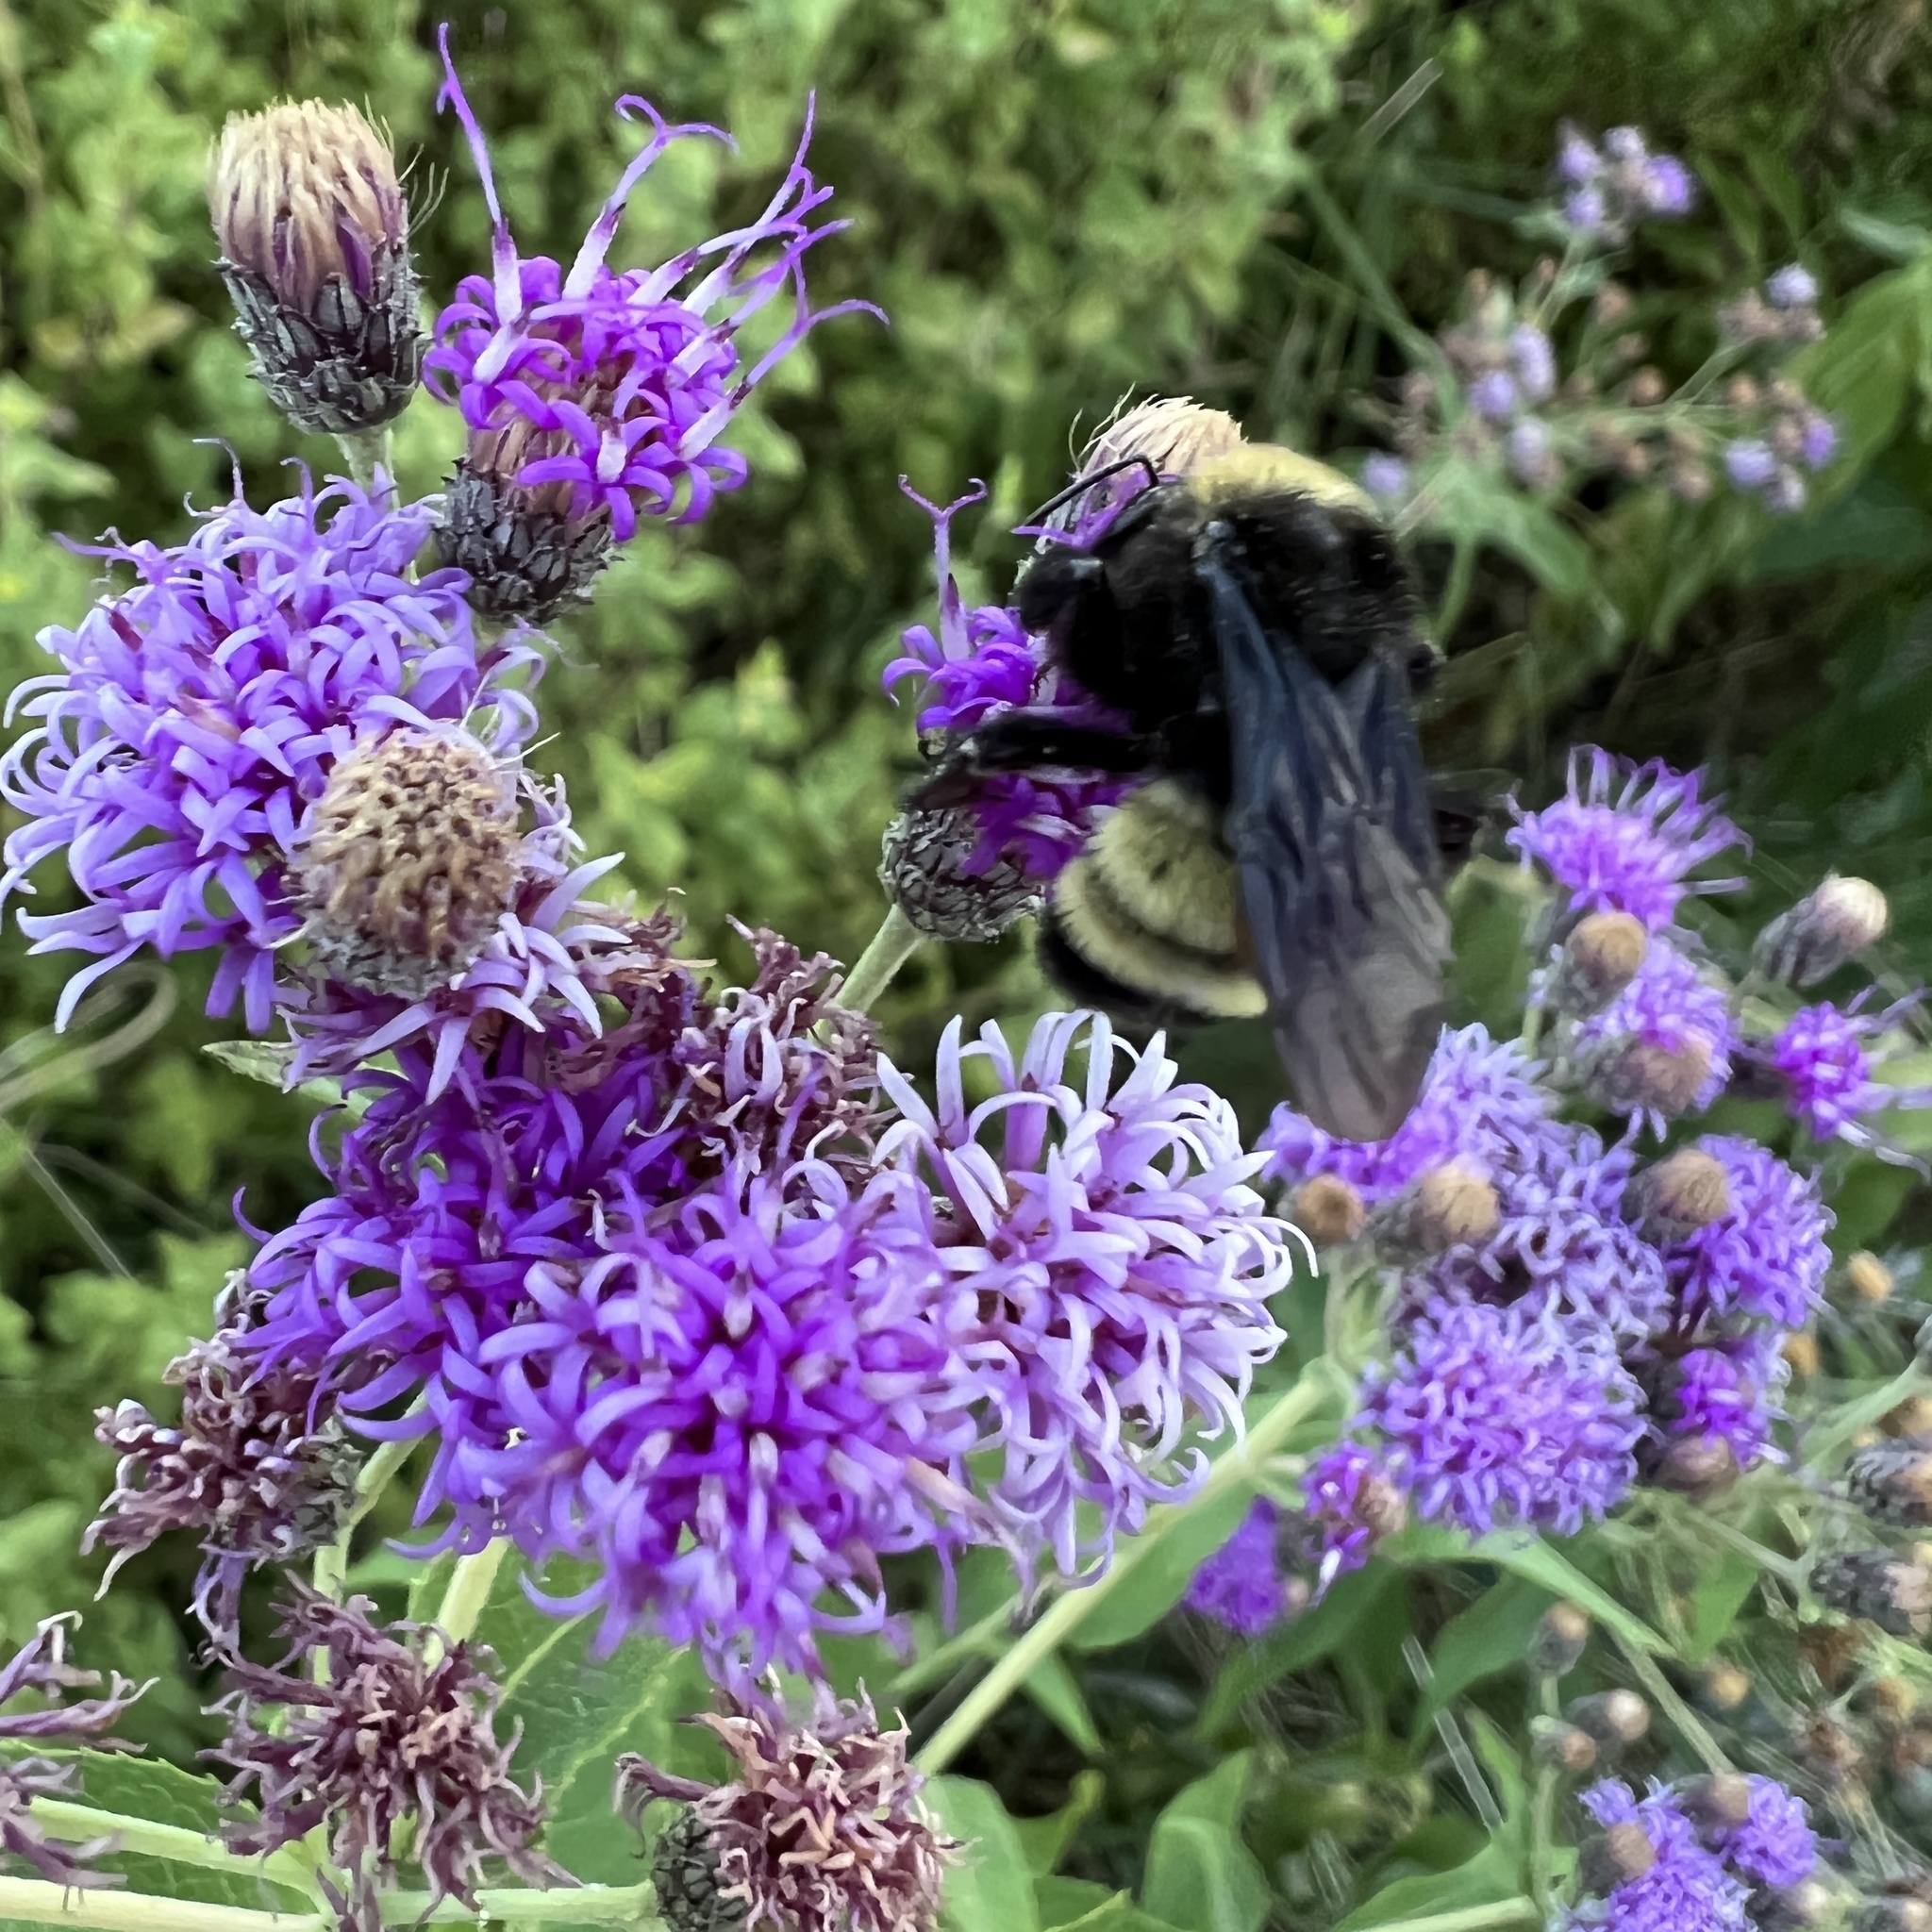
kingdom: Animalia
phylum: Arthropoda
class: Insecta
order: Hymenoptera
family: Apidae
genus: Bombus
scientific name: Bombus pensylvanicus
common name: Bumble bee
